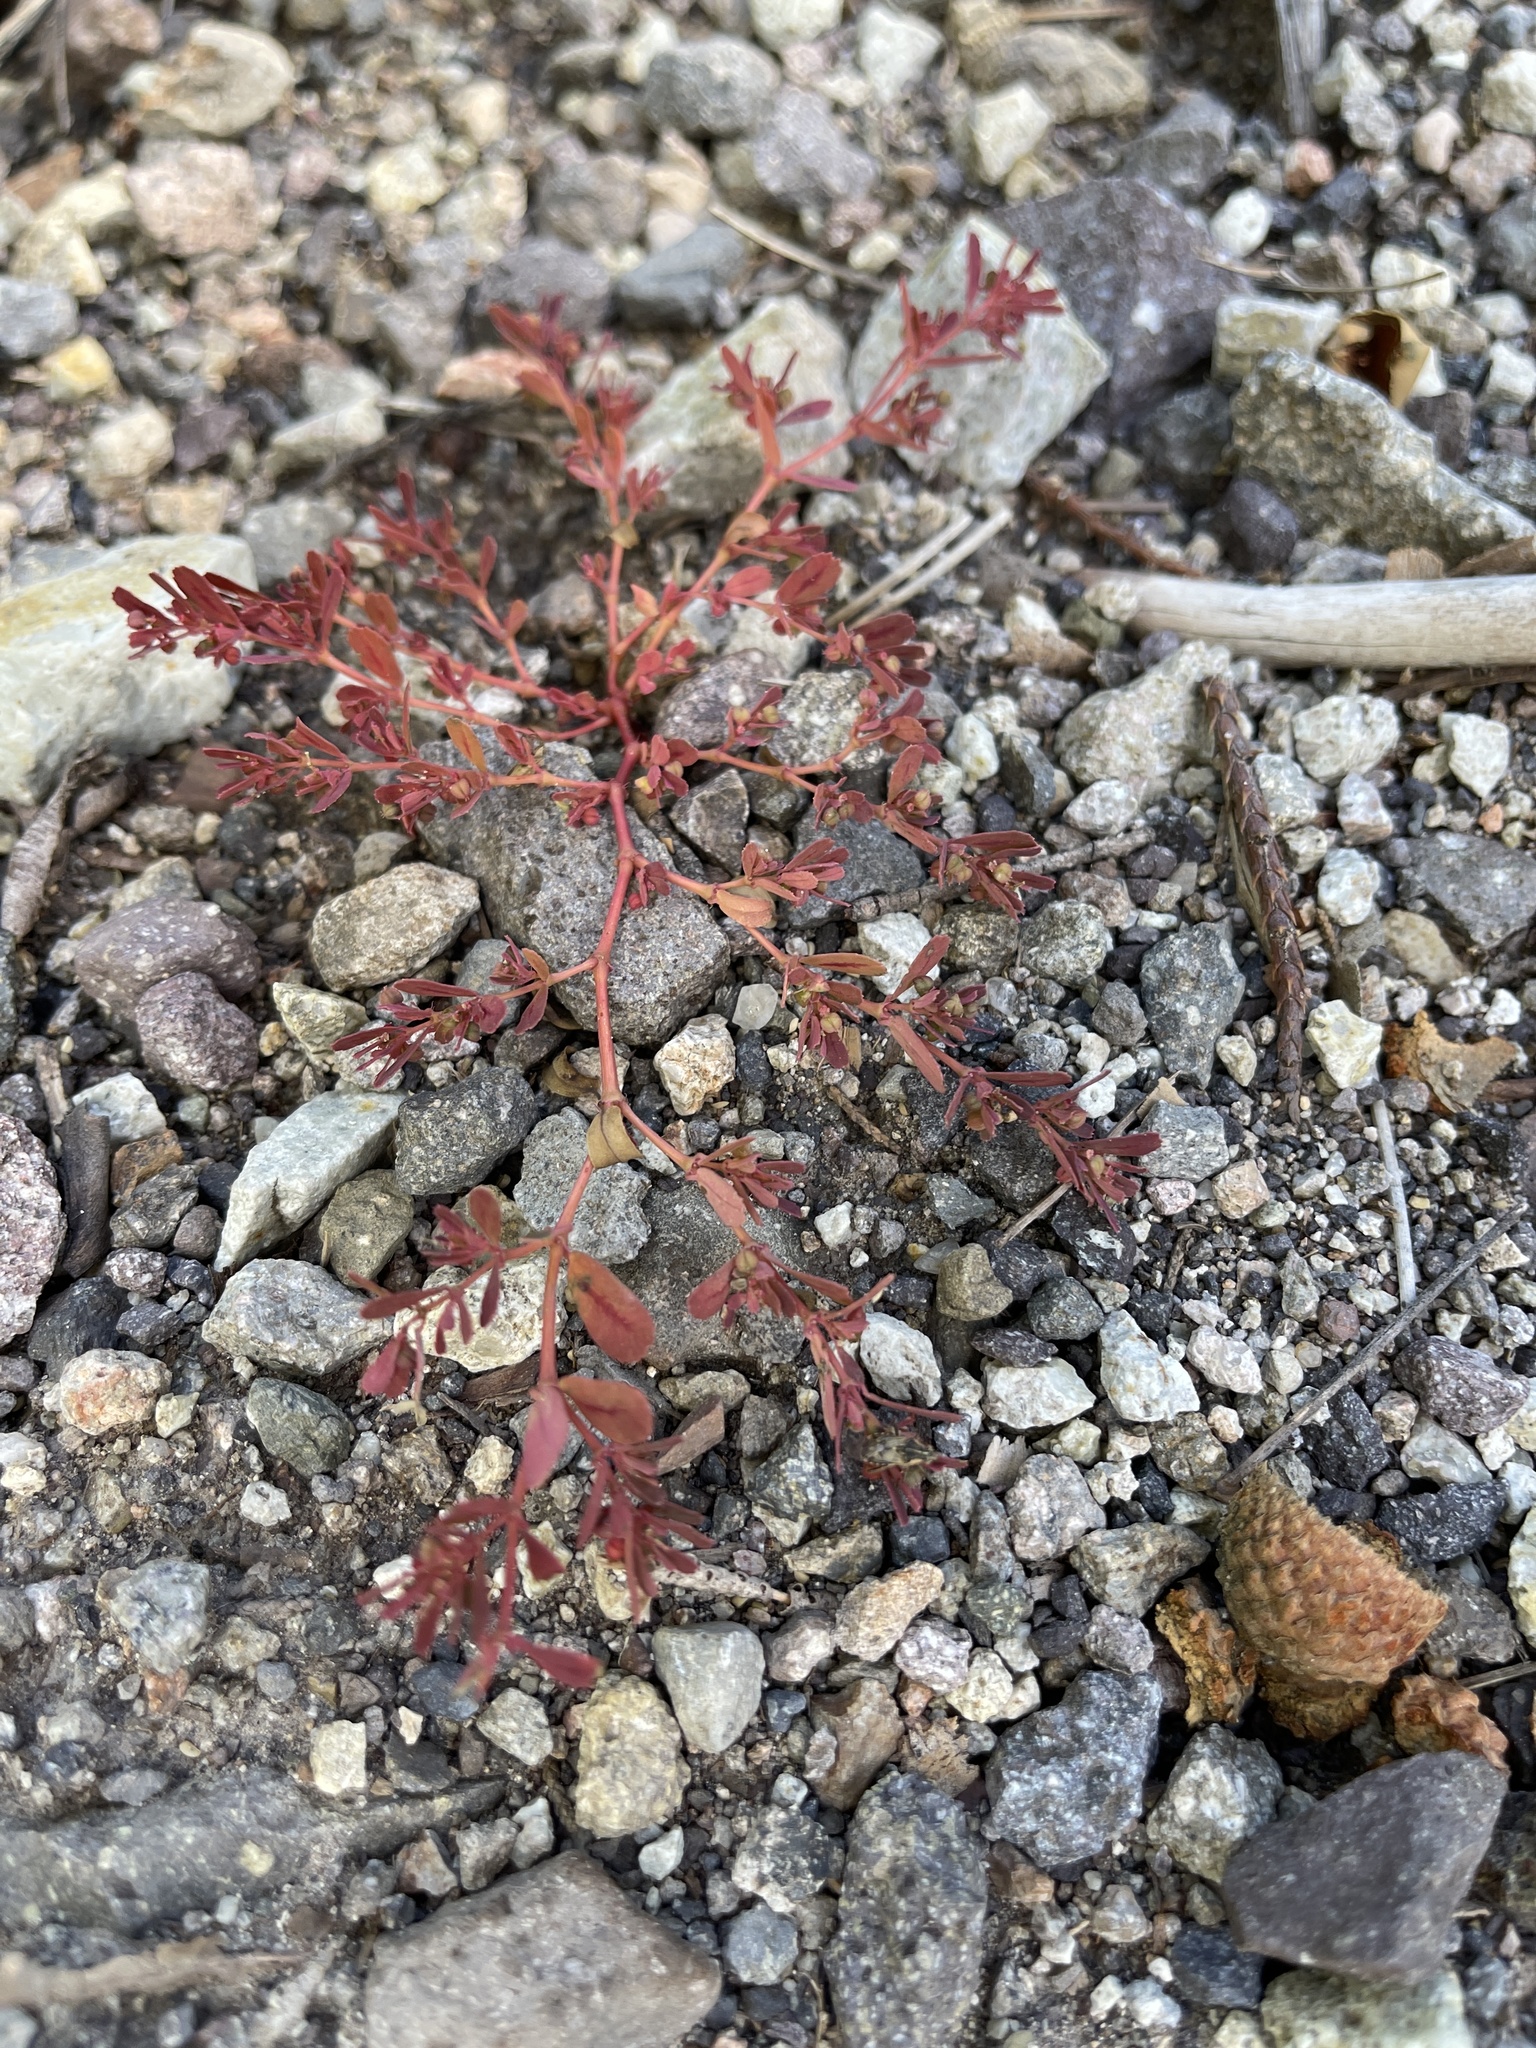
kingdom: Plantae
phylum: Tracheophyta
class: Magnoliopsida
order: Malpighiales
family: Euphorbiaceae
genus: Euphorbia
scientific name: Euphorbia serpillifolia
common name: Thyme-leaf spurge
